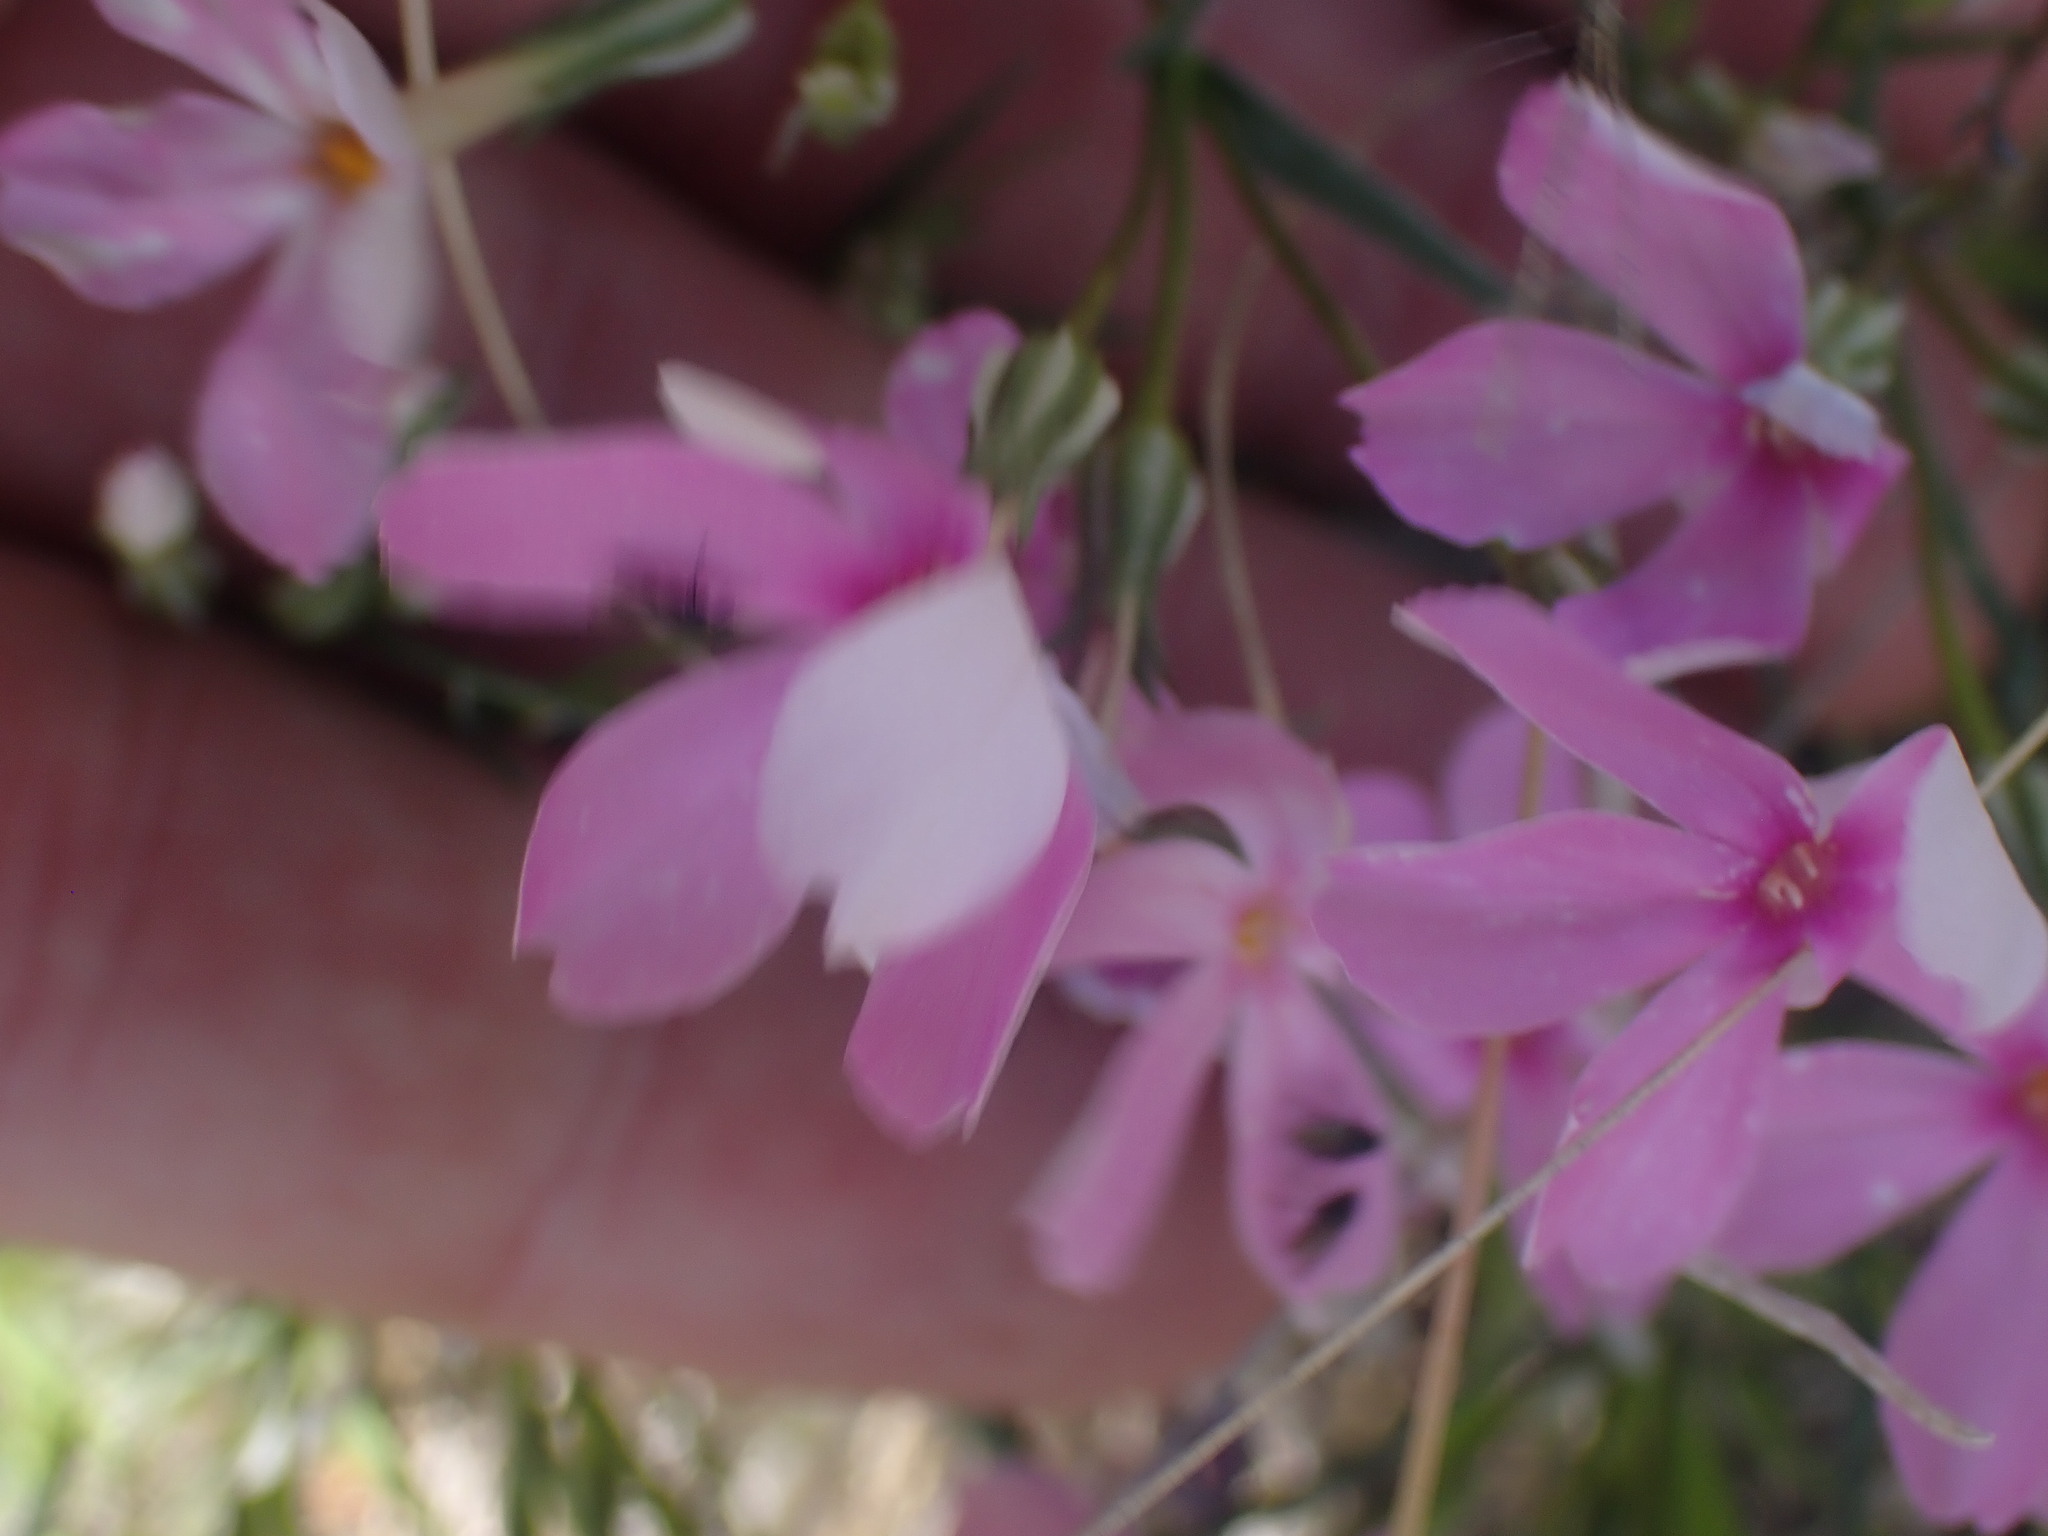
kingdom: Plantae
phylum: Tracheophyta
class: Magnoliopsida
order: Ericales
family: Polemoniaceae
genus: Phlox
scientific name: Phlox longifolia
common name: Longleaf phlox
